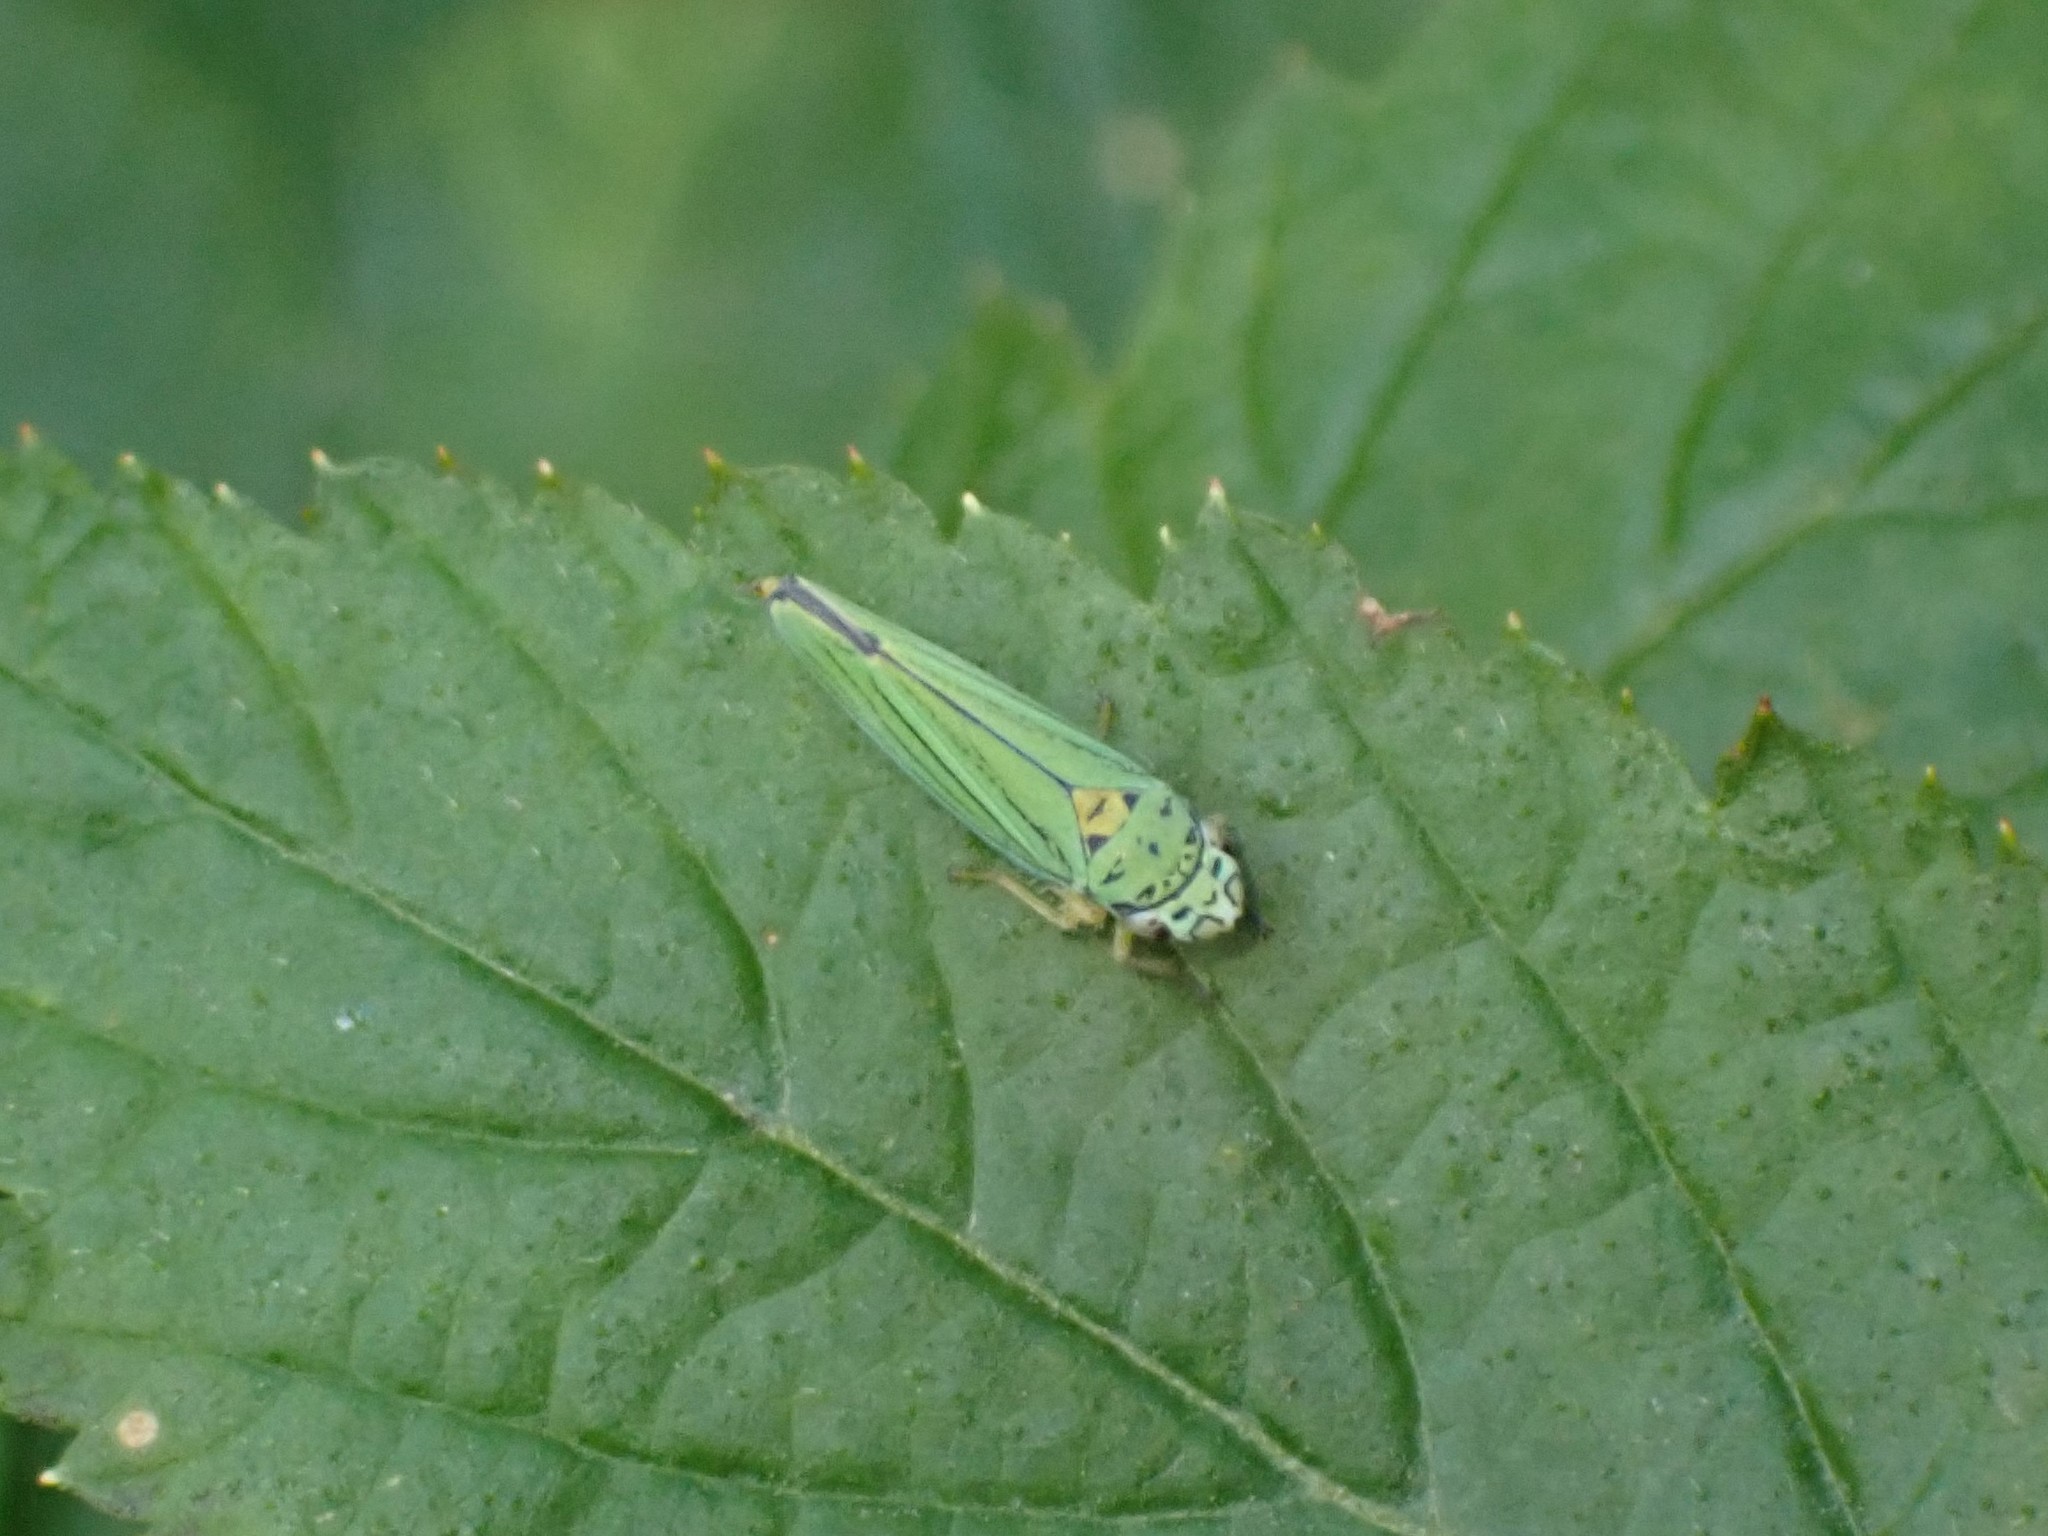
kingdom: Animalia
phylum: Arthropoda
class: Insecta
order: Hemiptera
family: Cicadellidae
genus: Graphocephala
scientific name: Graphocephala atropunctata
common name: Blue-green sharpshooter
